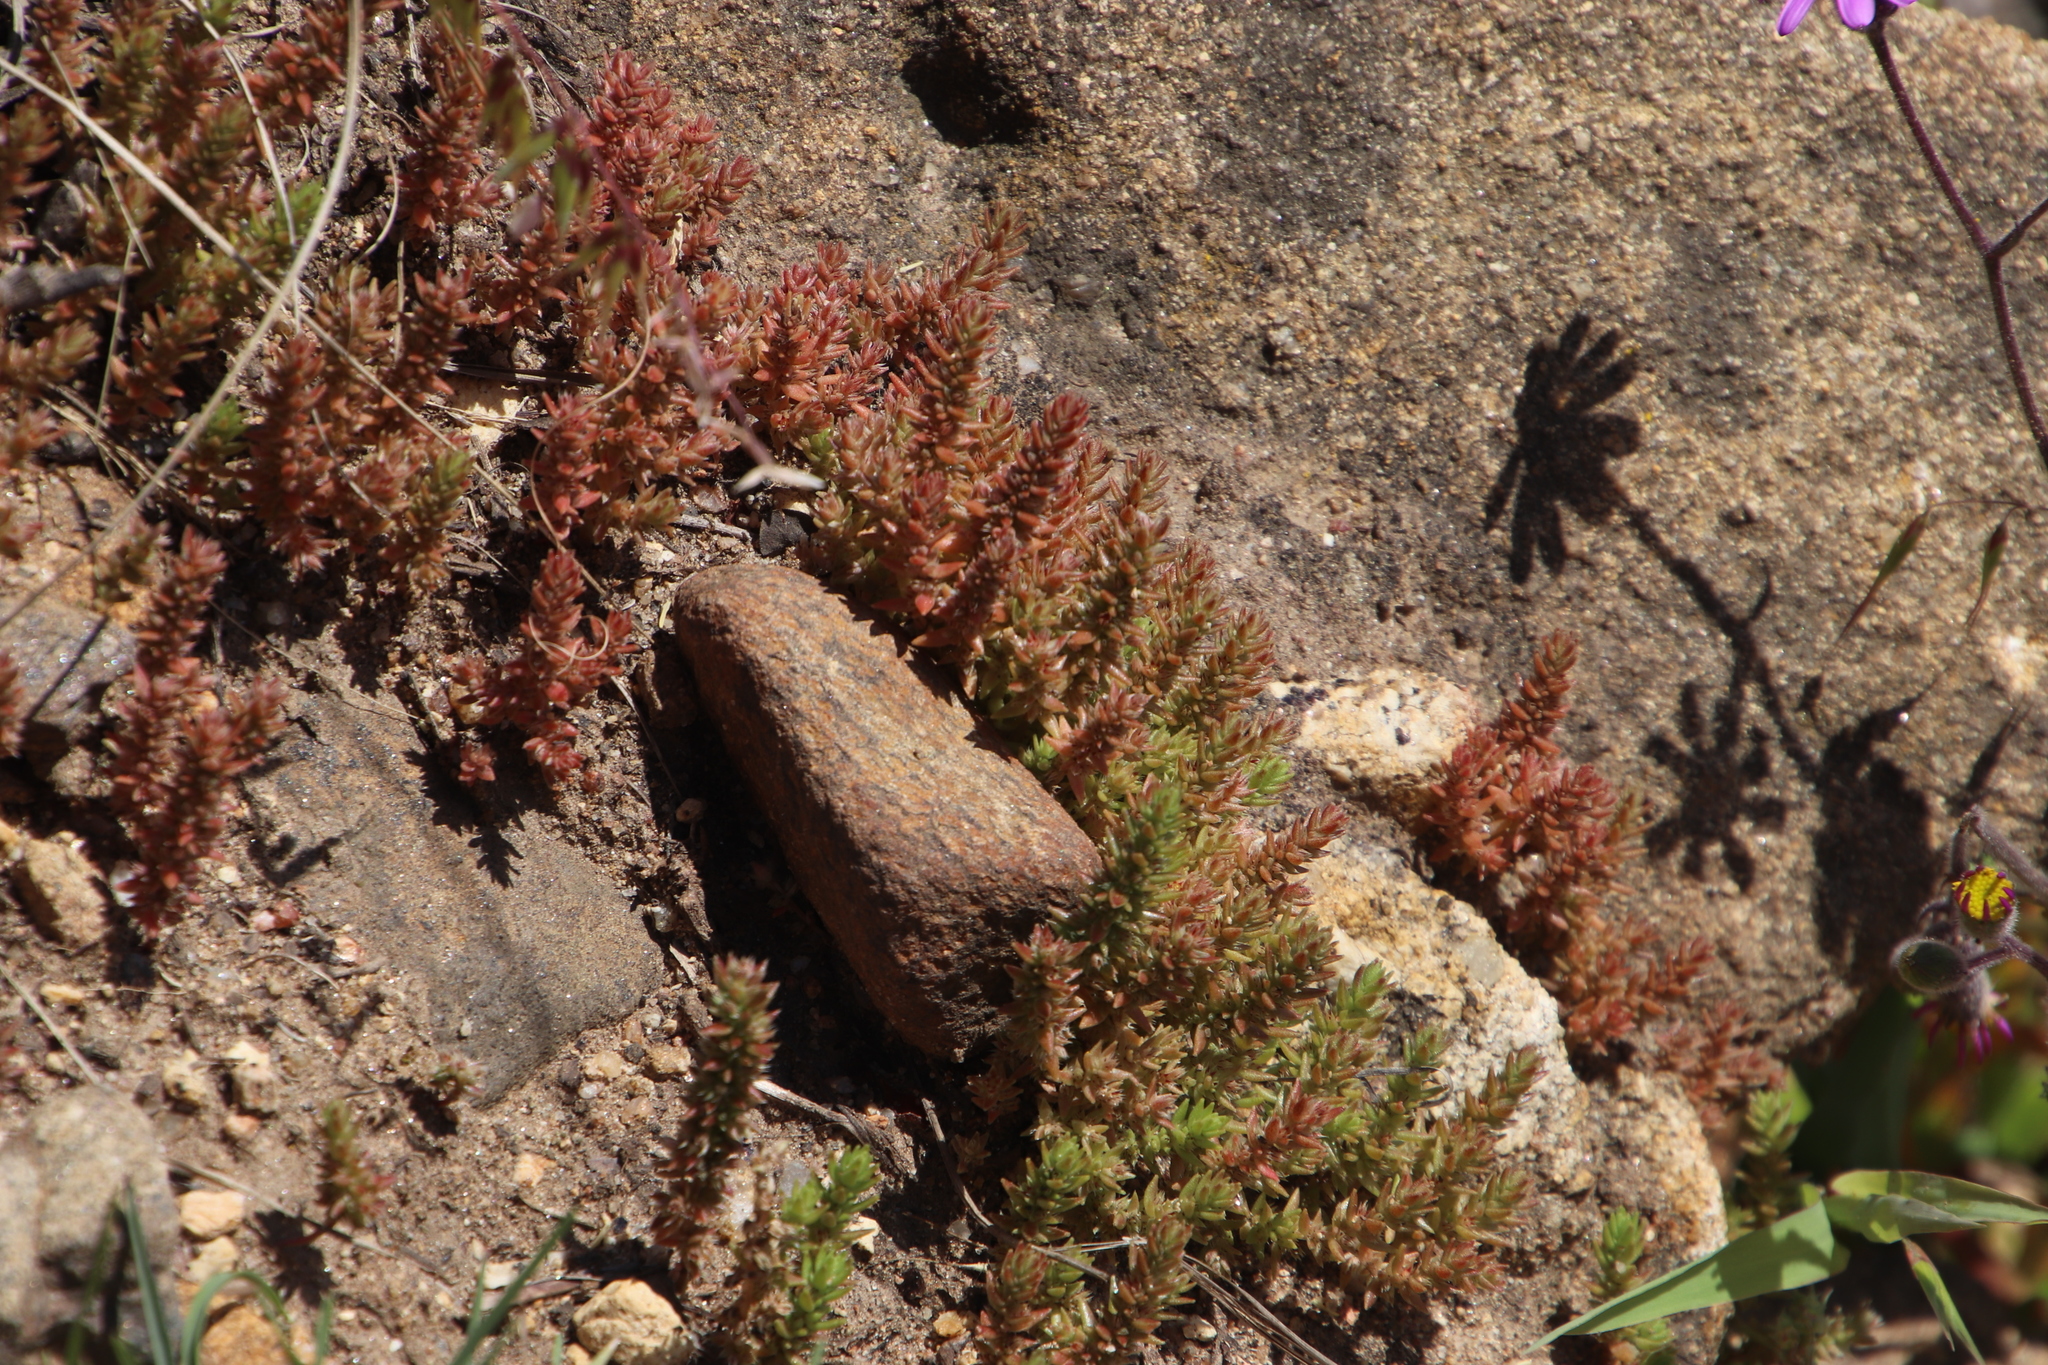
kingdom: Plantae
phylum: Tracheophyta
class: Magnoliopsida
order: Saxifragales
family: Crassulaceae
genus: Crassula
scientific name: Crassula decumbens
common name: Scilly pigmyweed
